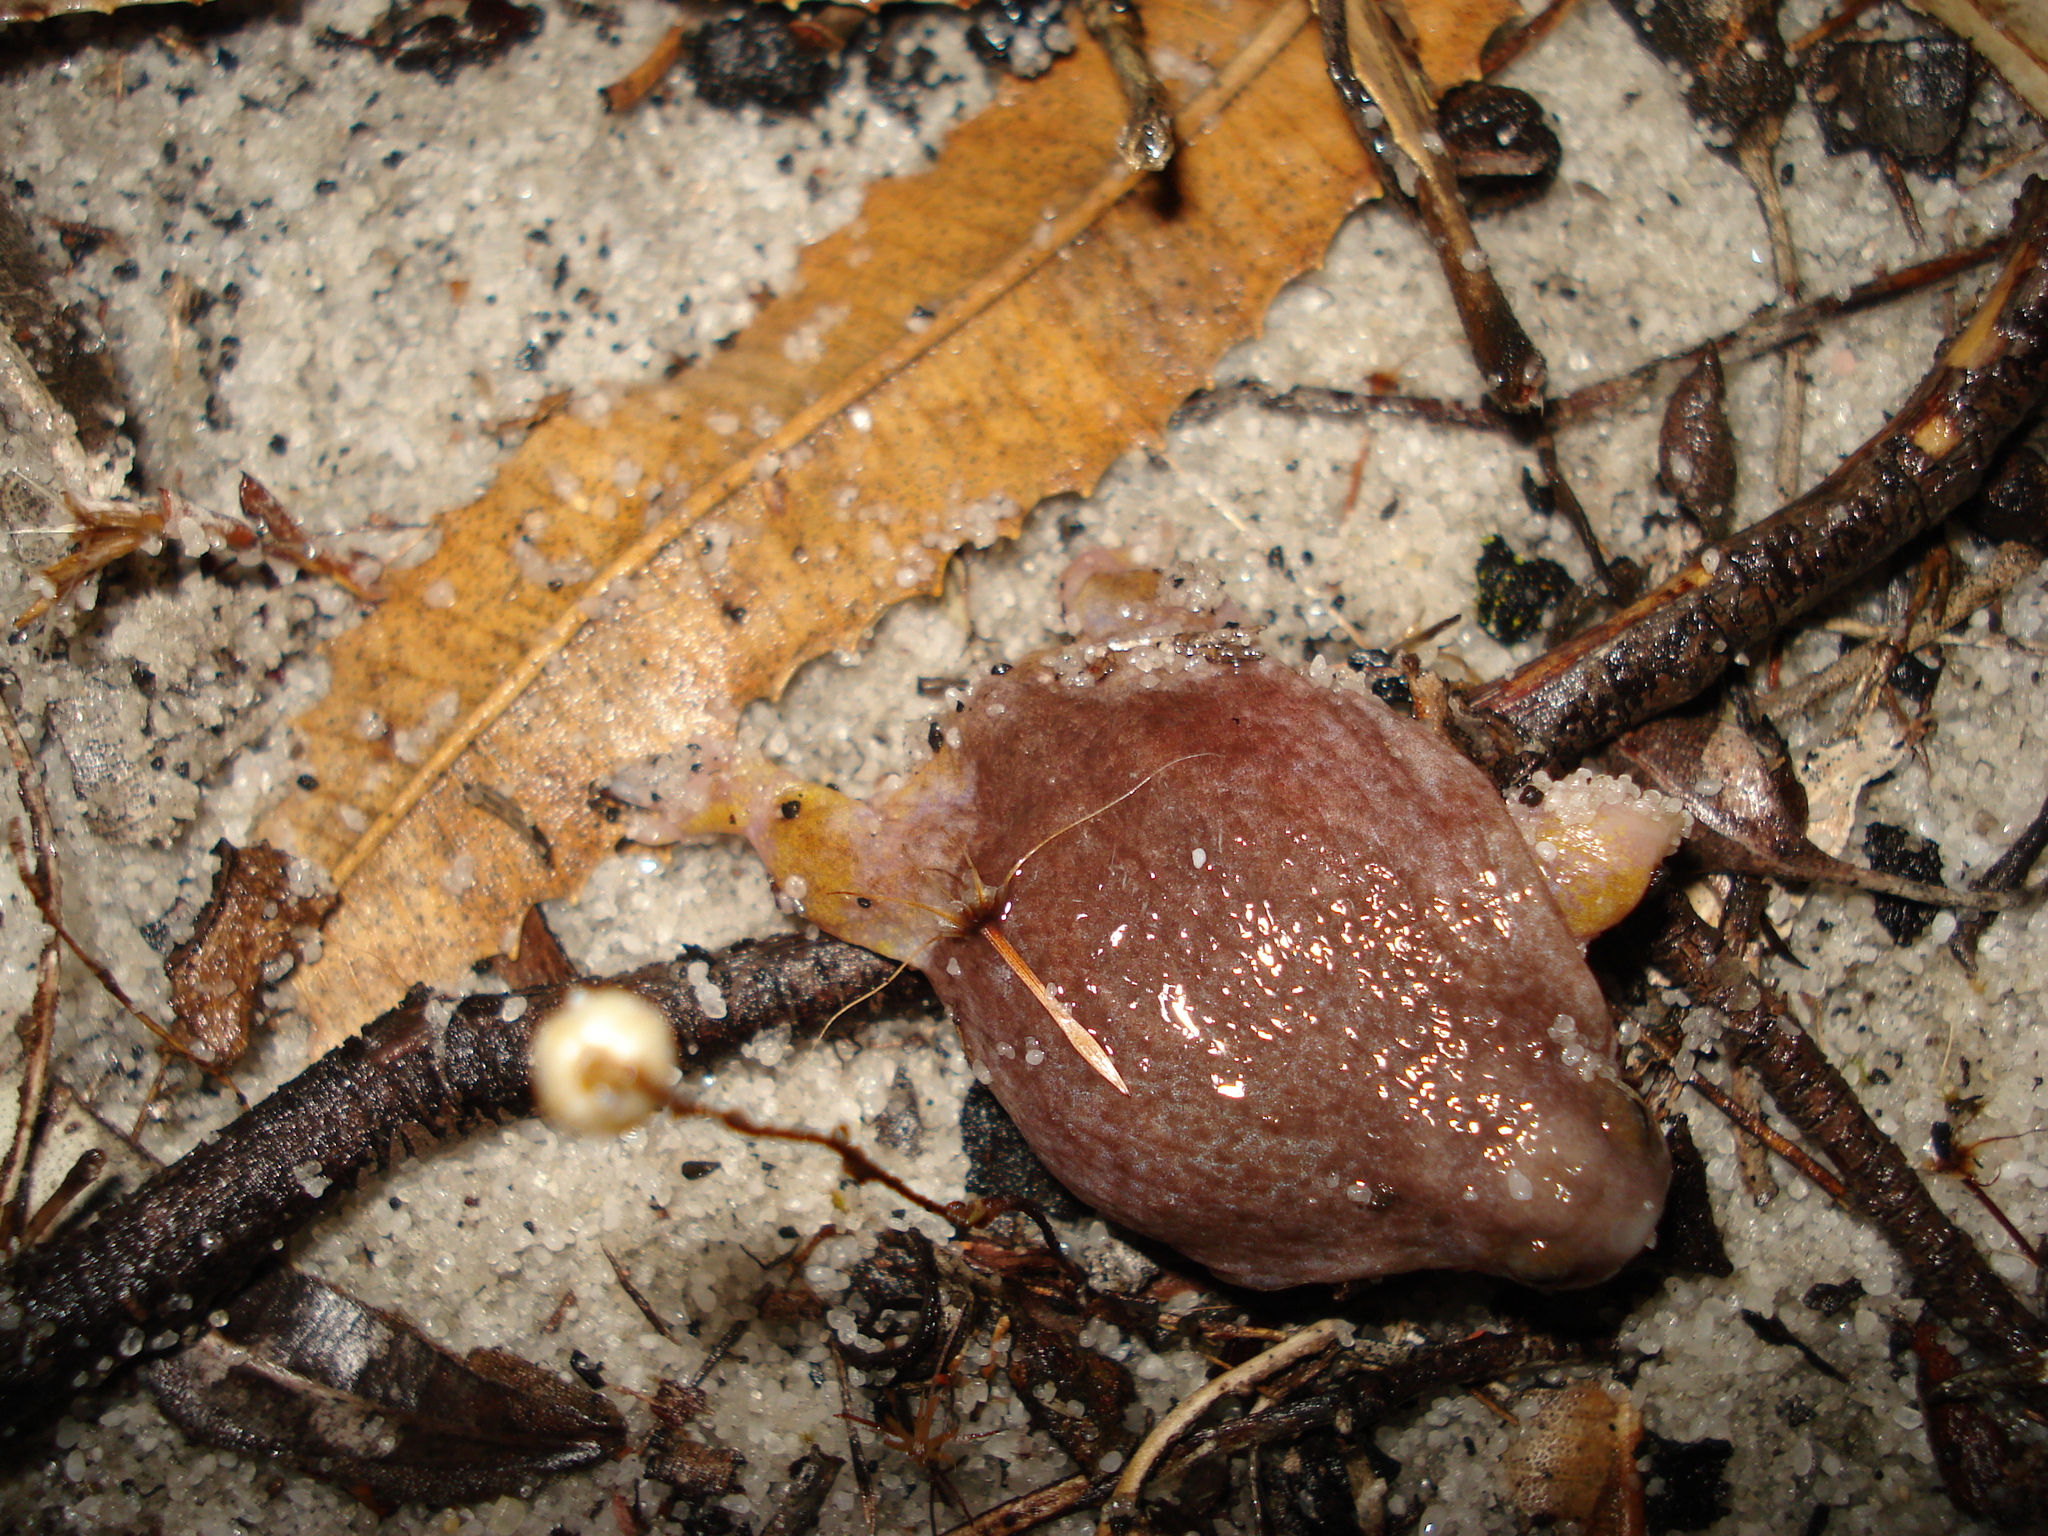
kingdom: Animalia
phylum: Chordata
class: Amphibia
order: Anura
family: Myobatrachidae
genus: Myobatrachus
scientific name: Myobatrachus gouldii
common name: Turtle frog
